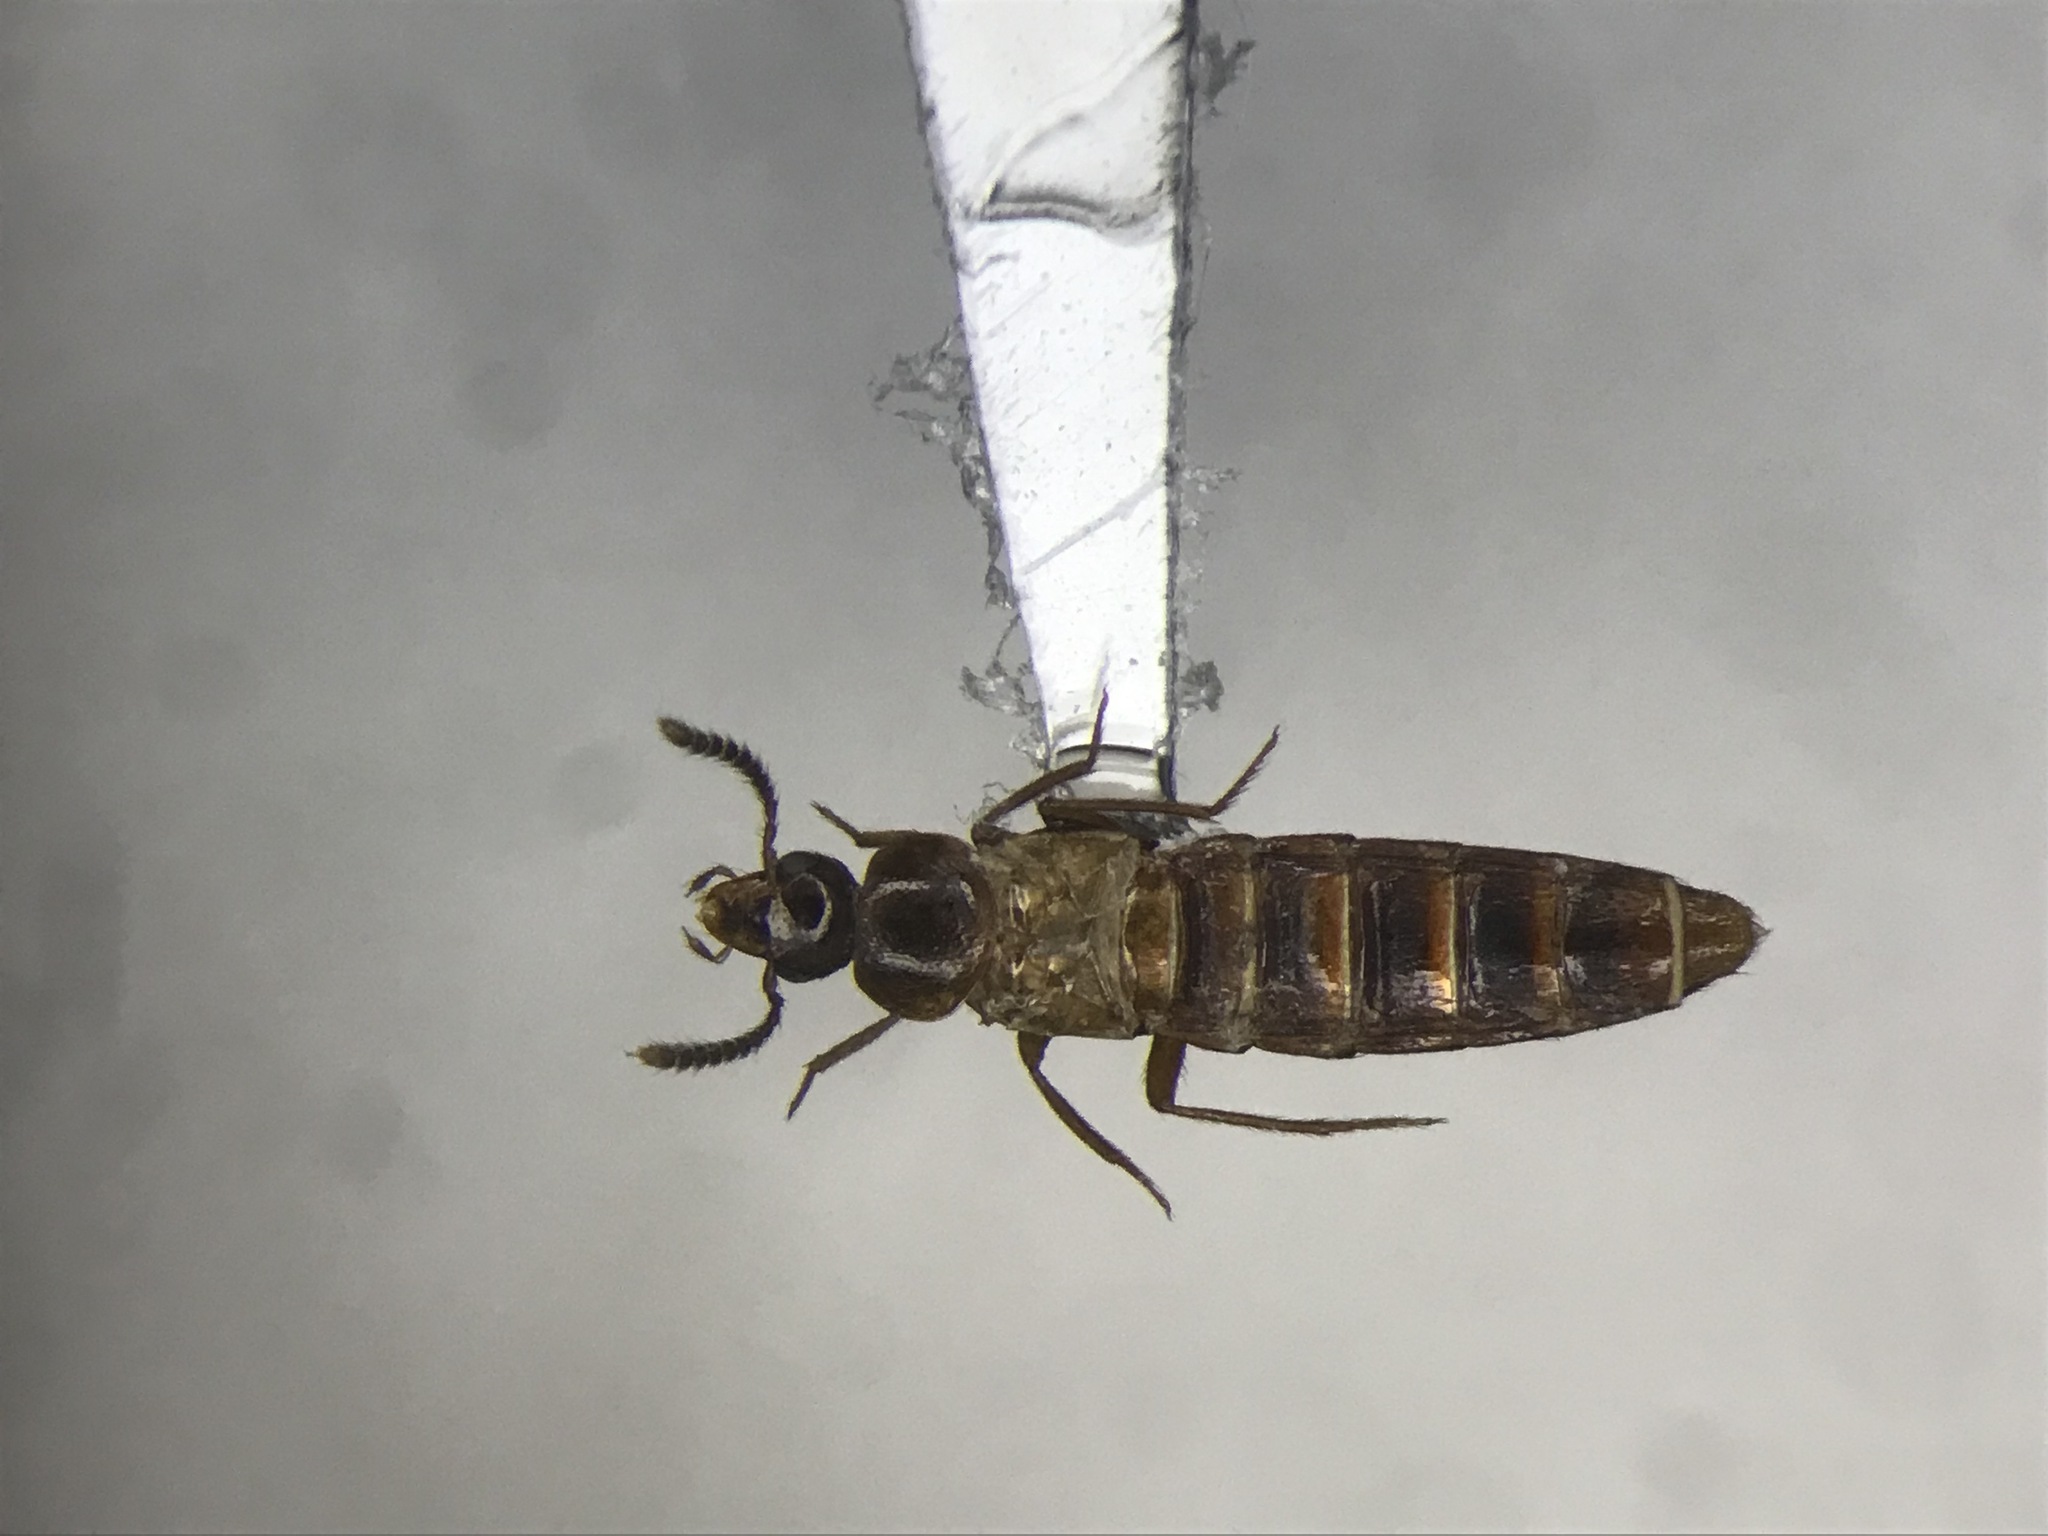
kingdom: Animalia
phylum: Arthropoda
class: Insecta
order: Coleoptera
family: Staphylinidae
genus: Hoplandria
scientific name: Hoplandria laeviventris
